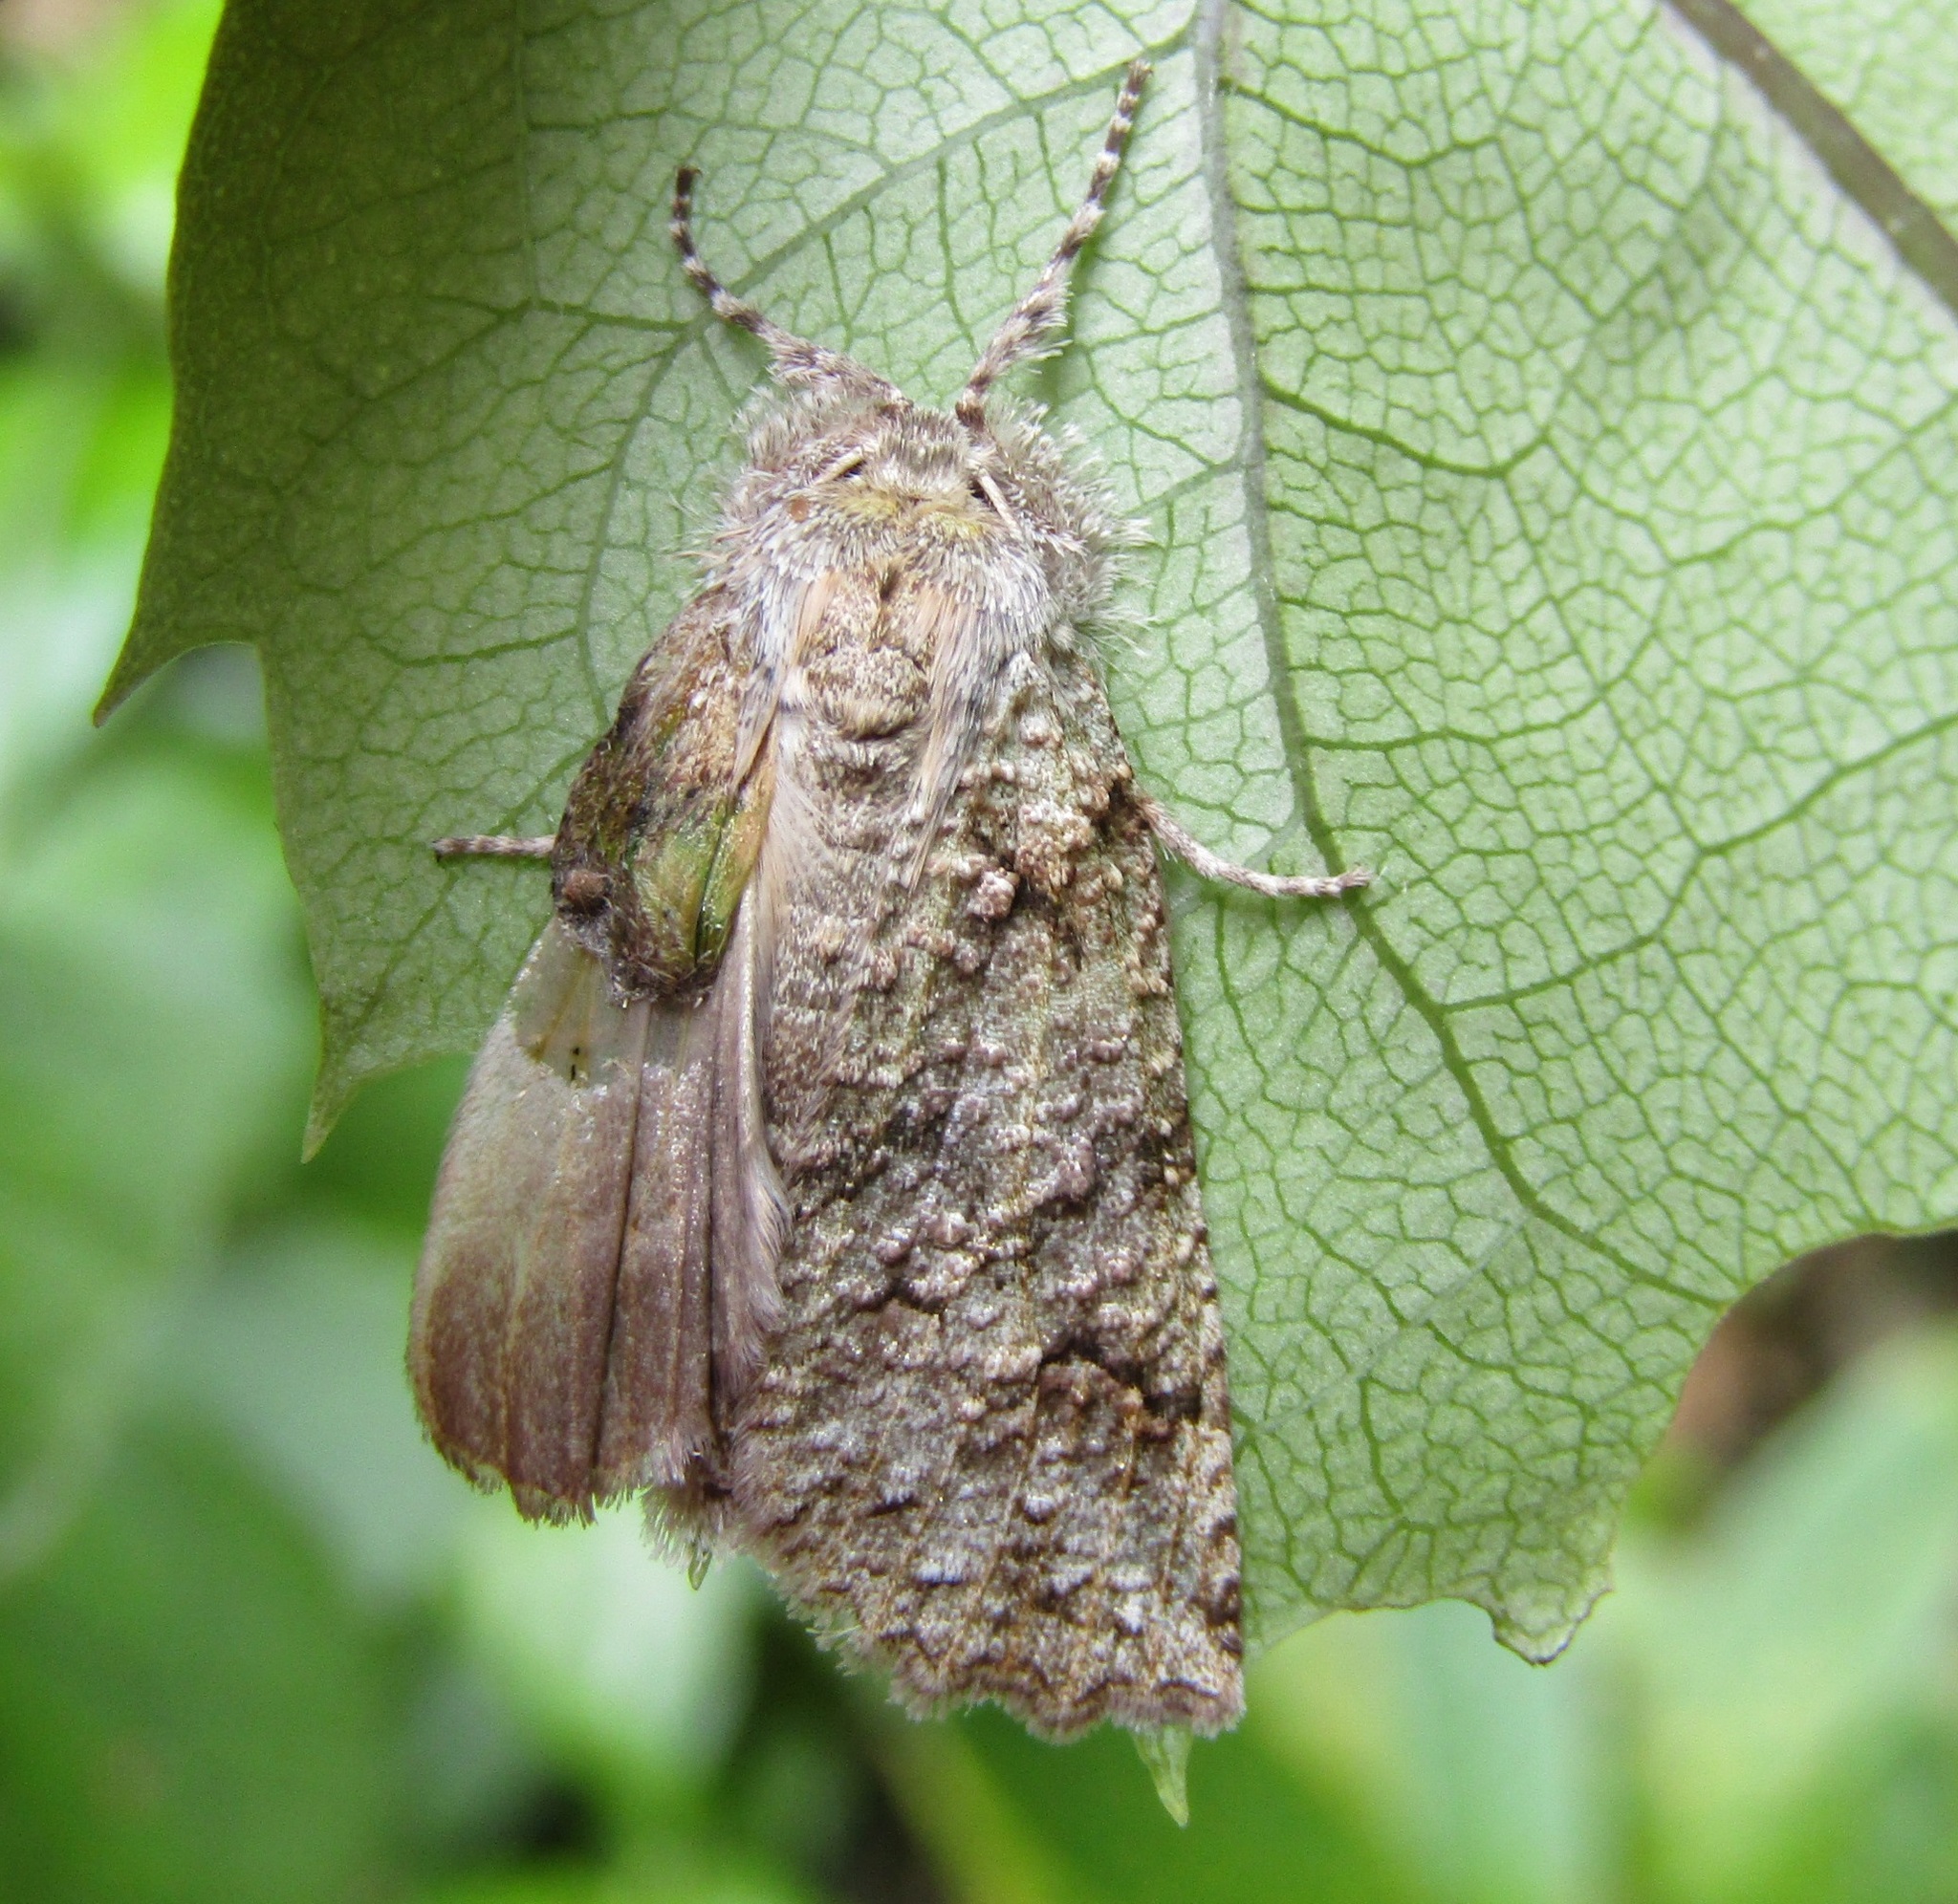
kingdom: Animalia
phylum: Arthropoda
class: Insecta
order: Lepidoptera
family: Geometridae
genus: Declana
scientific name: Declana floccosa
